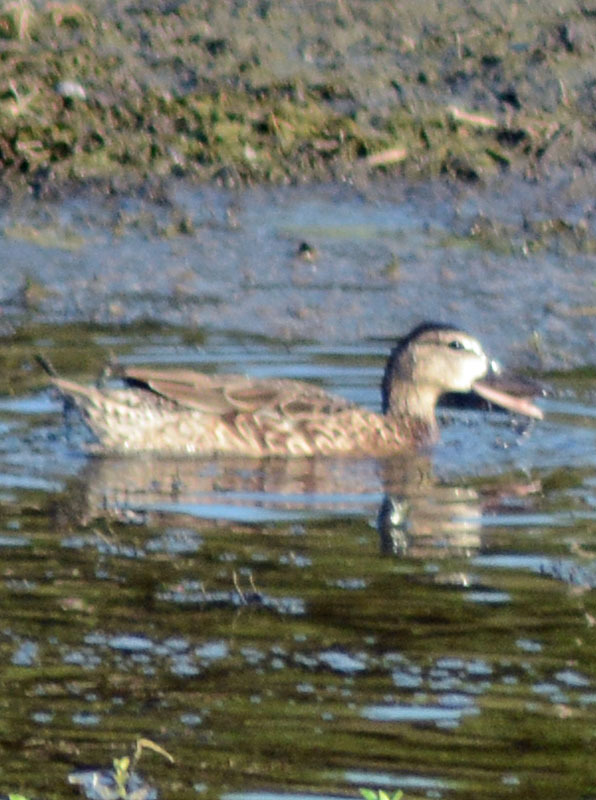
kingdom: Animalia
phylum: Chordata
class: Aves
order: Anseriformes
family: Anatidae
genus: Spatula
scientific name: Spatula discors
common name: Blue-winged teal
